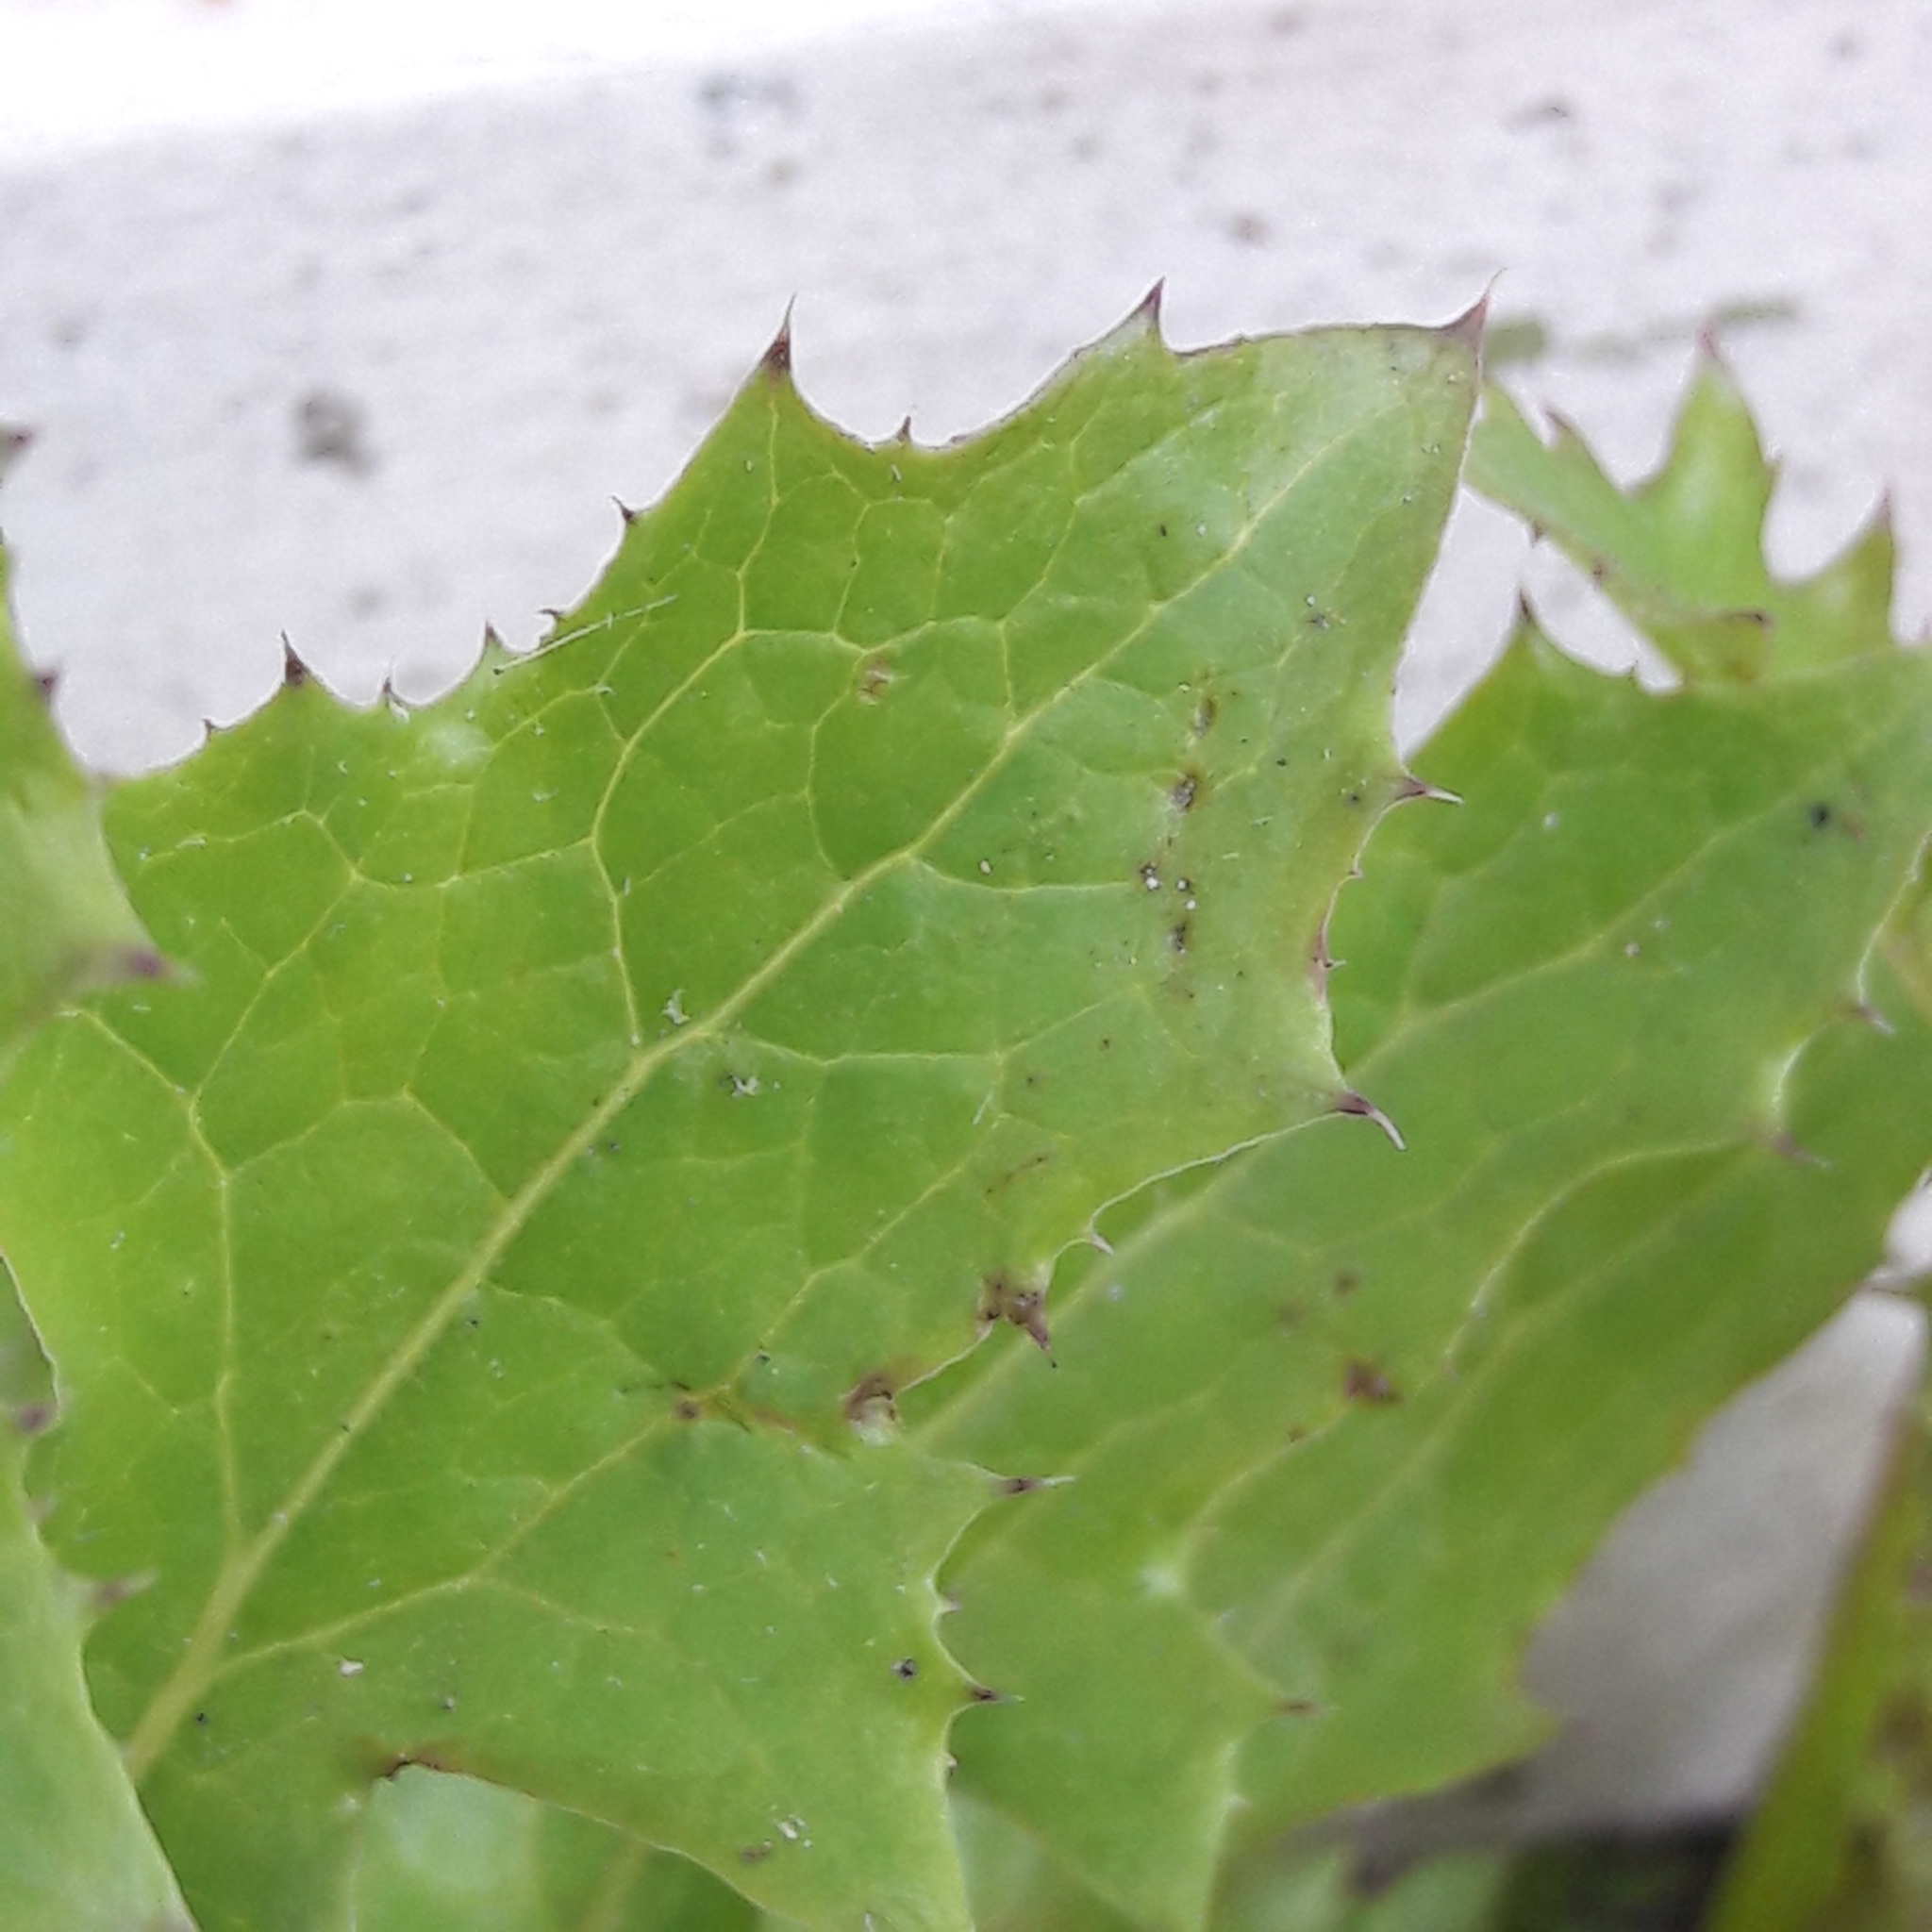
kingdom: Plantae
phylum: Tracheophyta
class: Magnoliopsida
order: Asterales
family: Asteraceae
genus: Sonchus
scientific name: Sonchus oleraceus
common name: Common sowthistle
